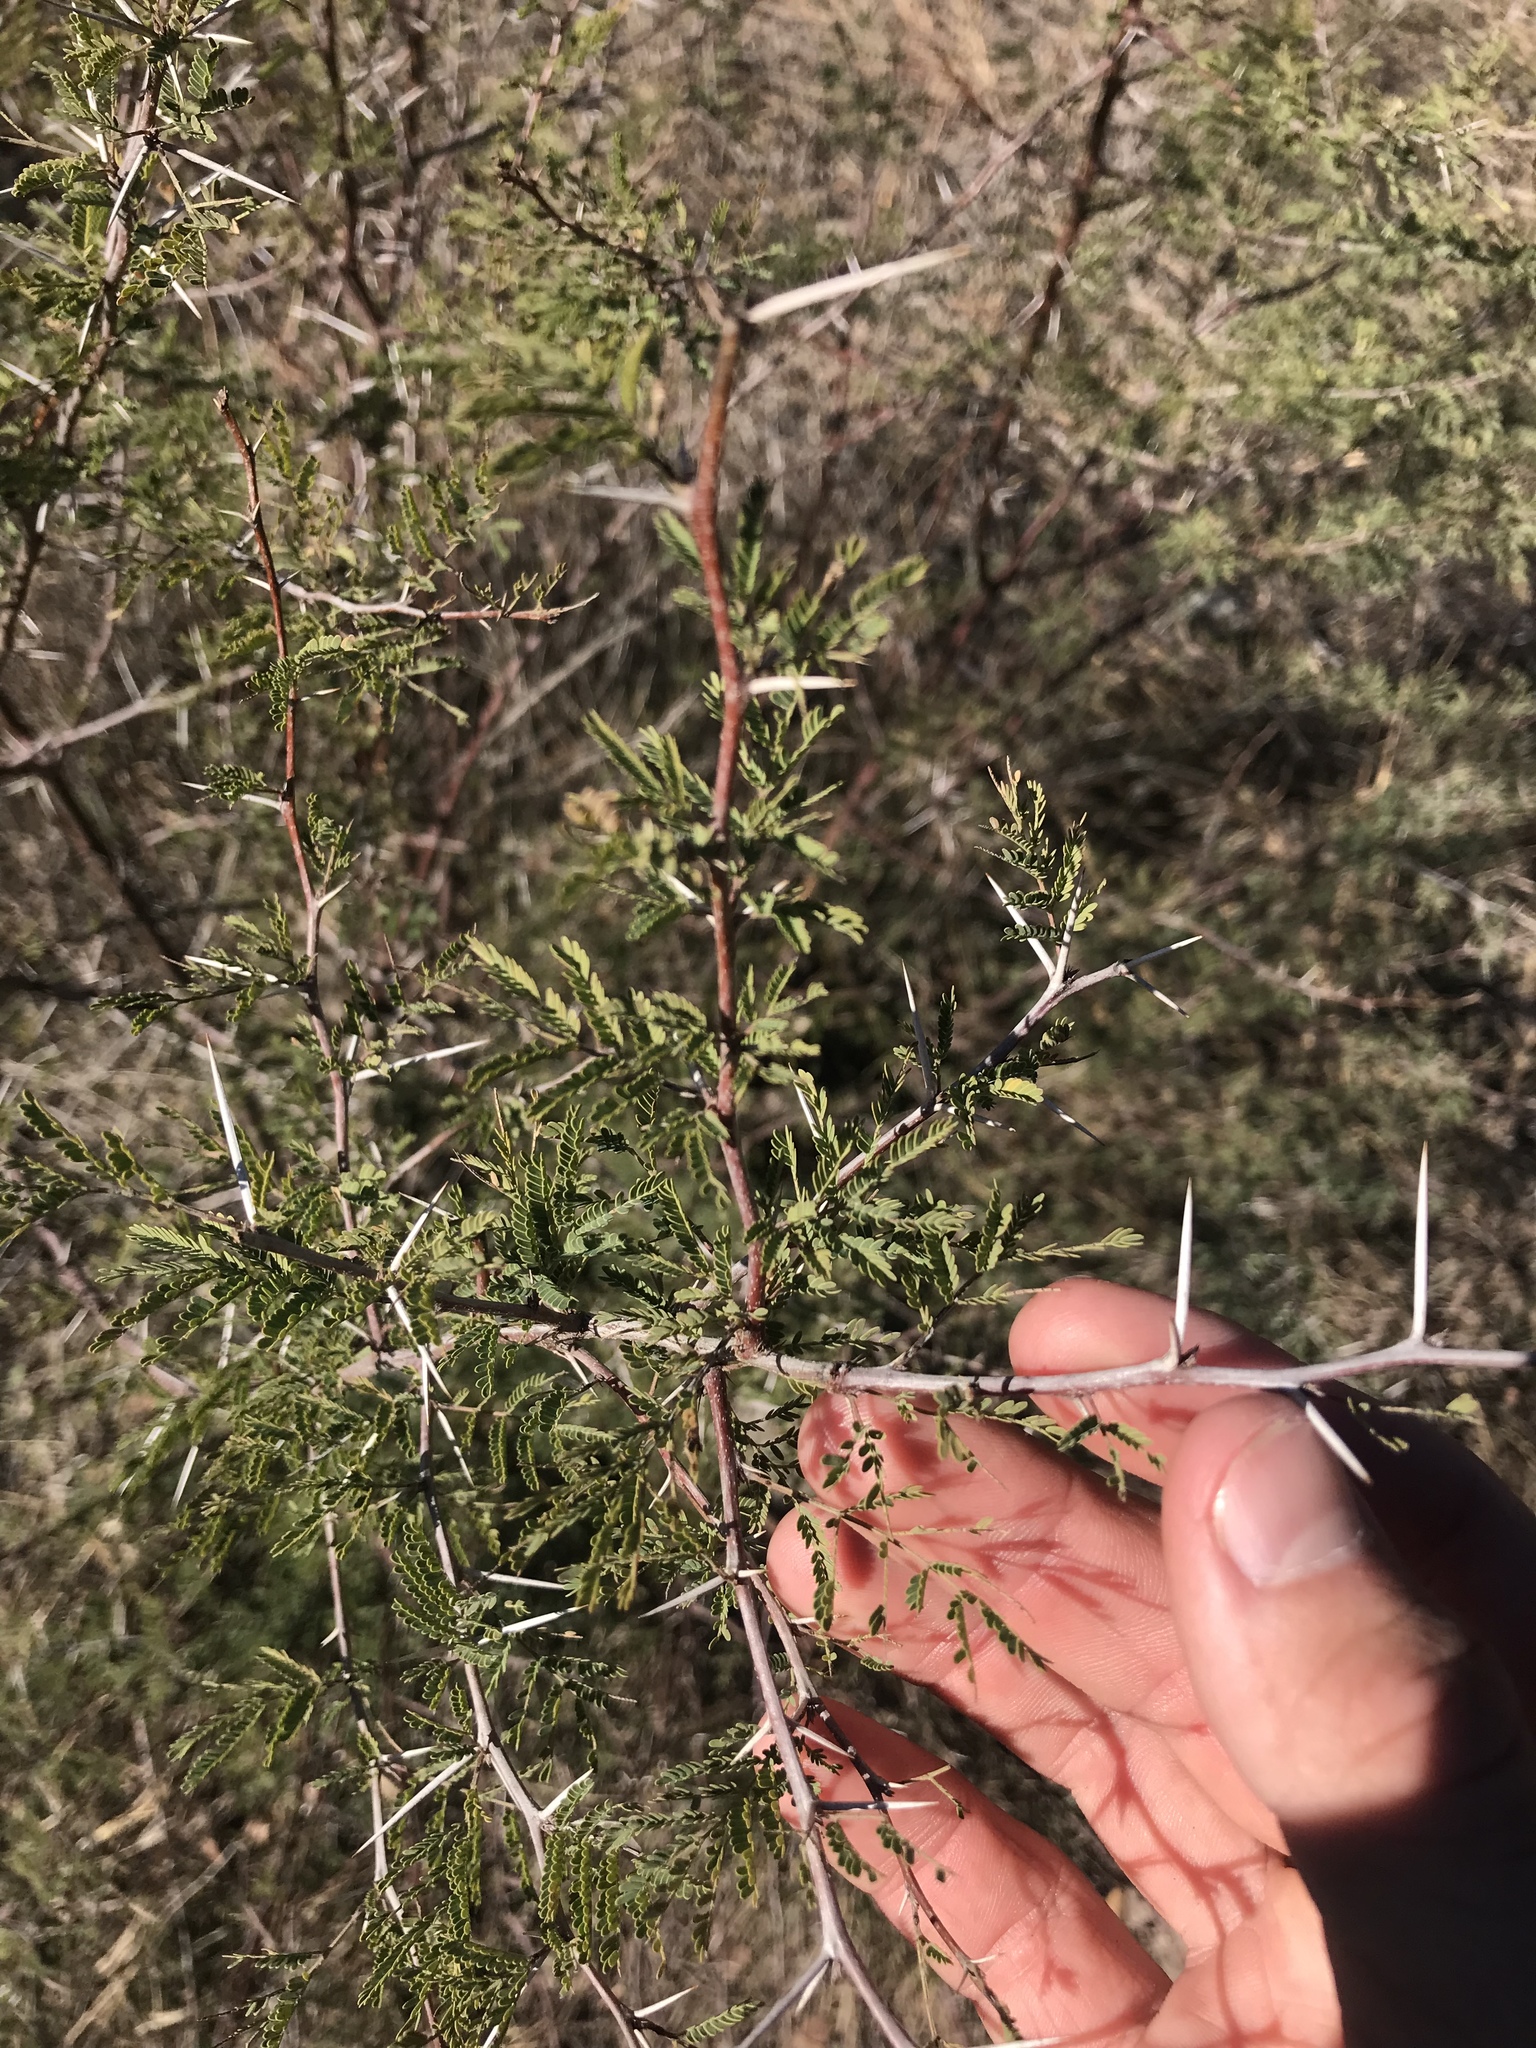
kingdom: Plantae
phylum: Tracheophyta
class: Magnoliopsida
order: Fabales
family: Fabaceae
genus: Vachellia
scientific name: Vachellia farnesiana
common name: Sweet acacia
